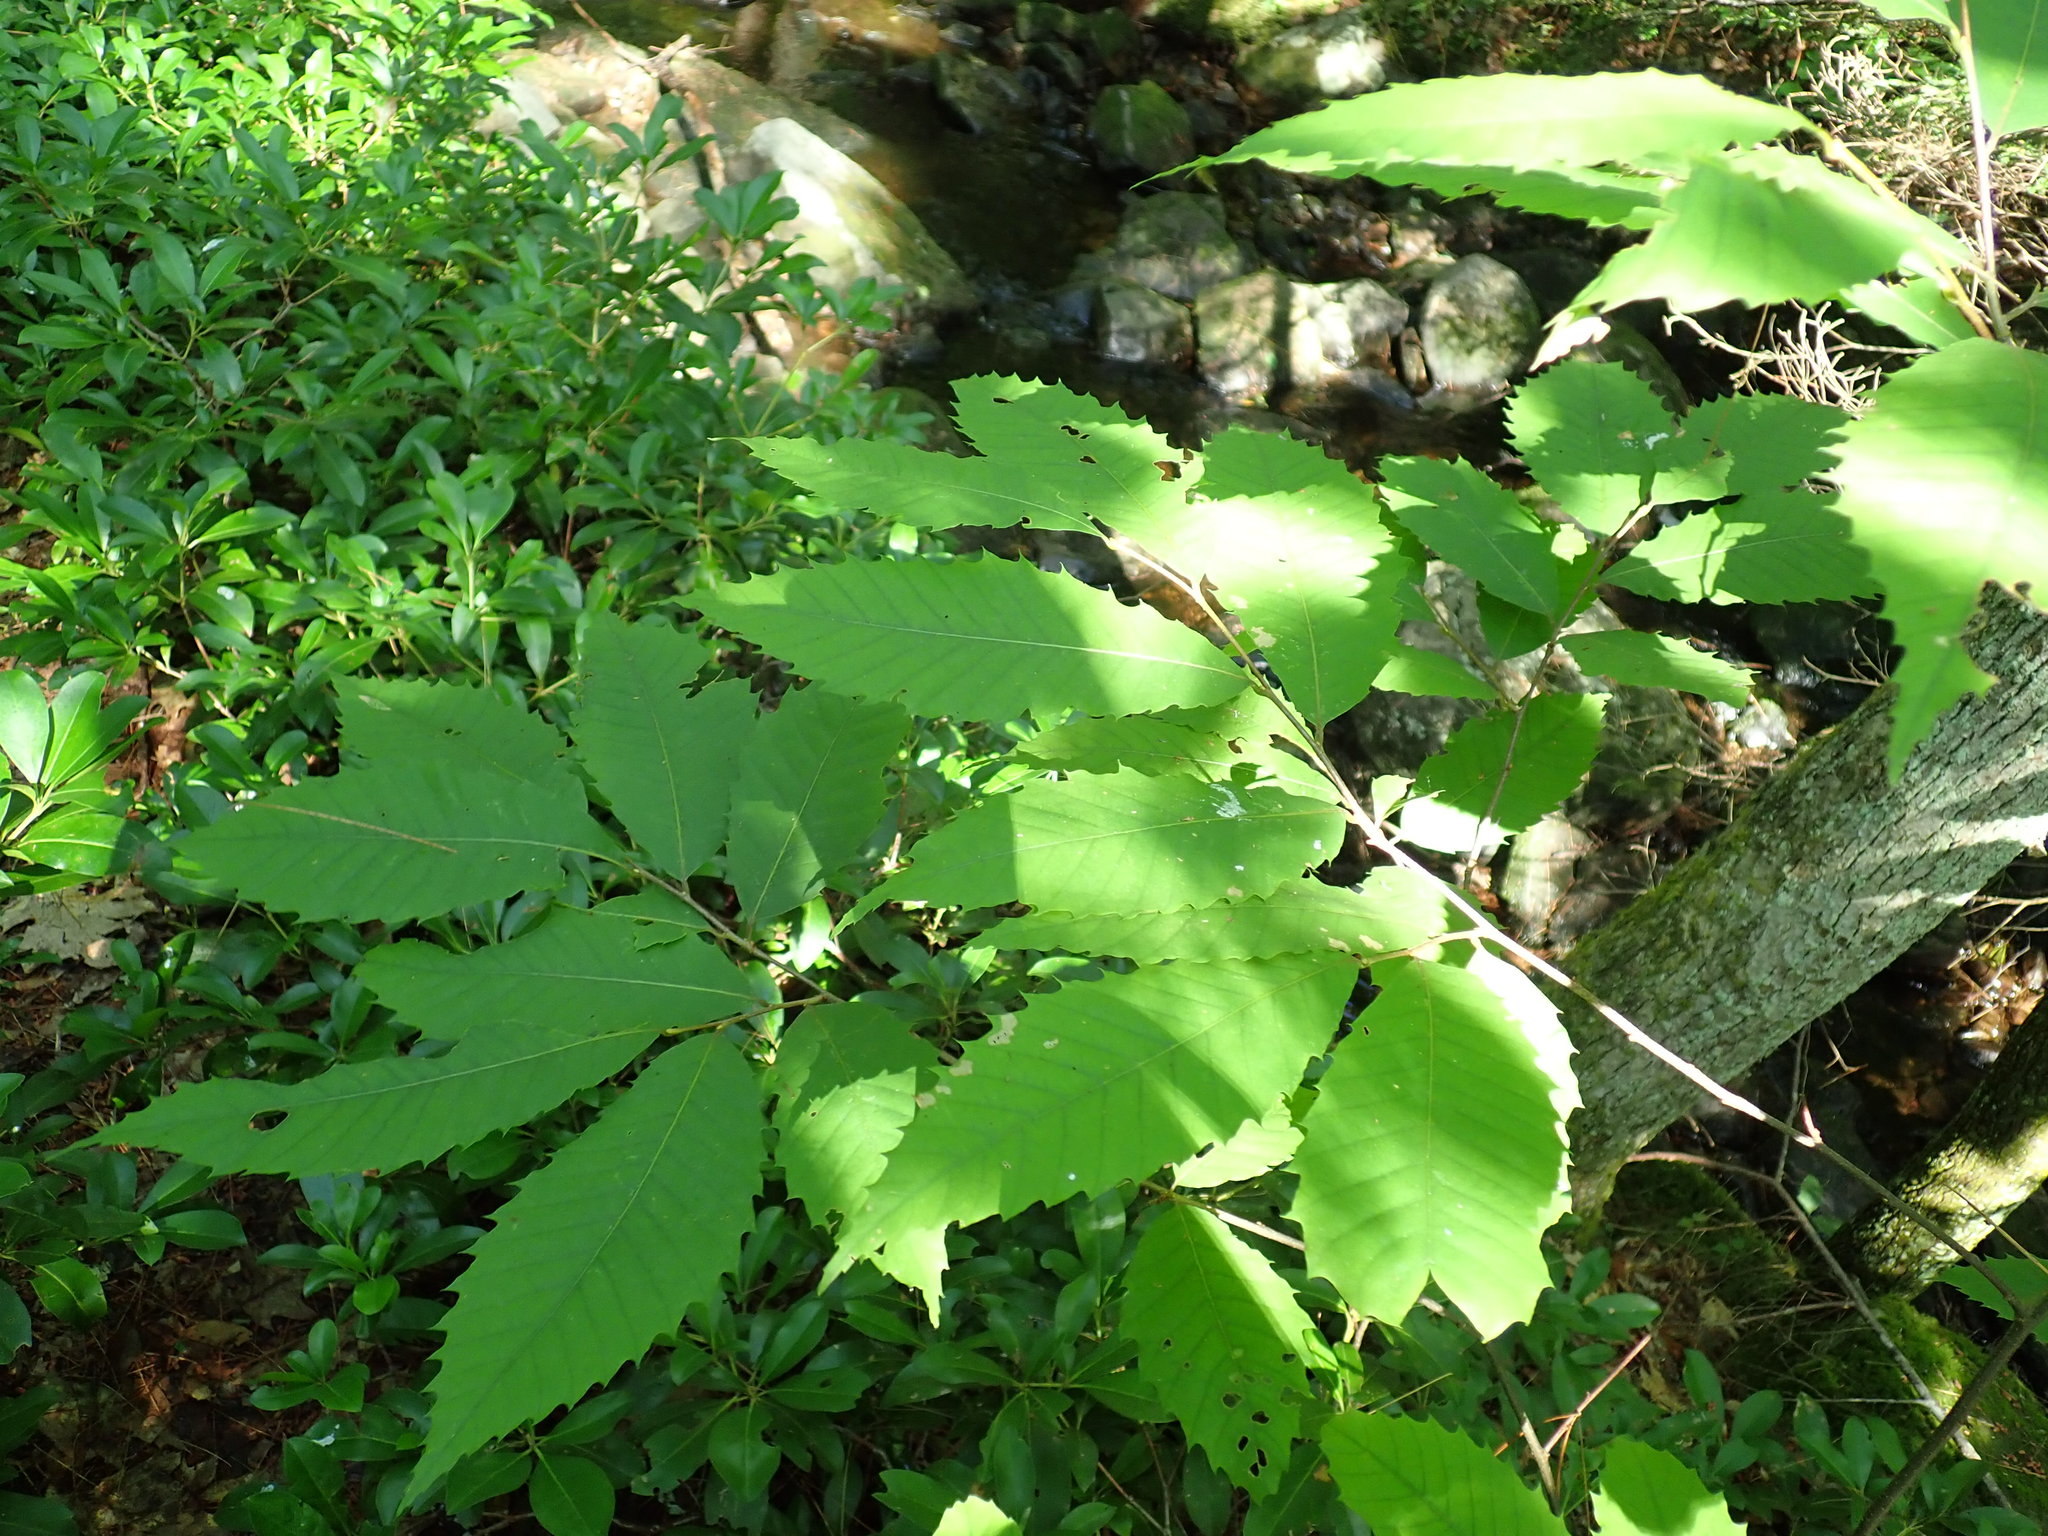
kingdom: Plantae
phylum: Tracheophyta
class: Magnoliopsida
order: Fagales
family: Fagaceae
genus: Castanea
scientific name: Castanea dentata
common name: American chestnut
